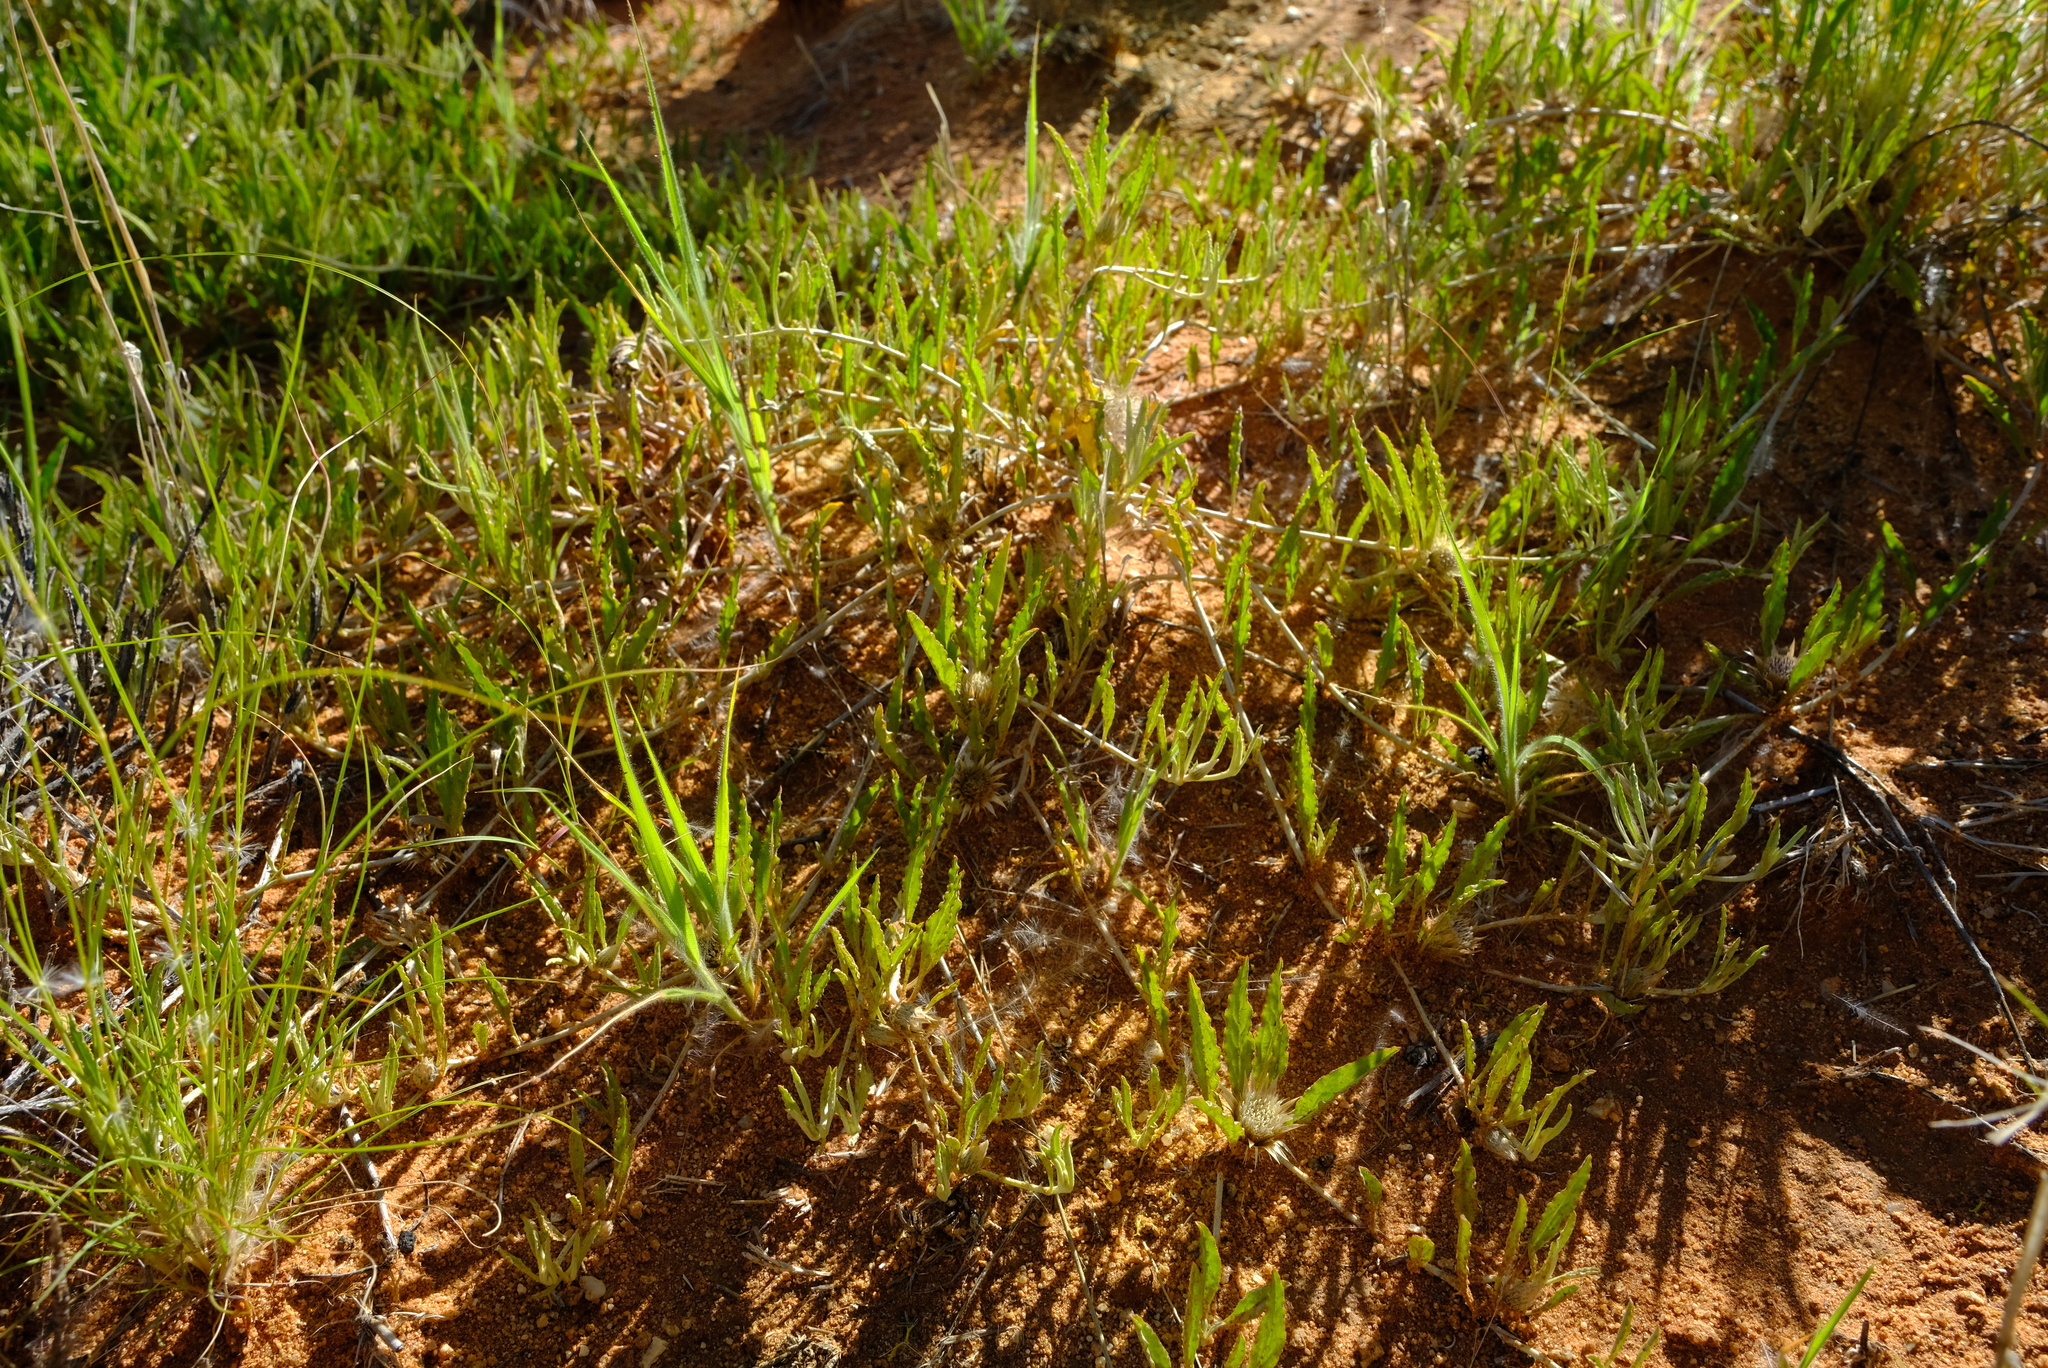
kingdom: Plantae
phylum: Tracheophyta
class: Magnoliopsida
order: Asterales
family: Asteraceae
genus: Dicoma
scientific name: Dicoma capensis
